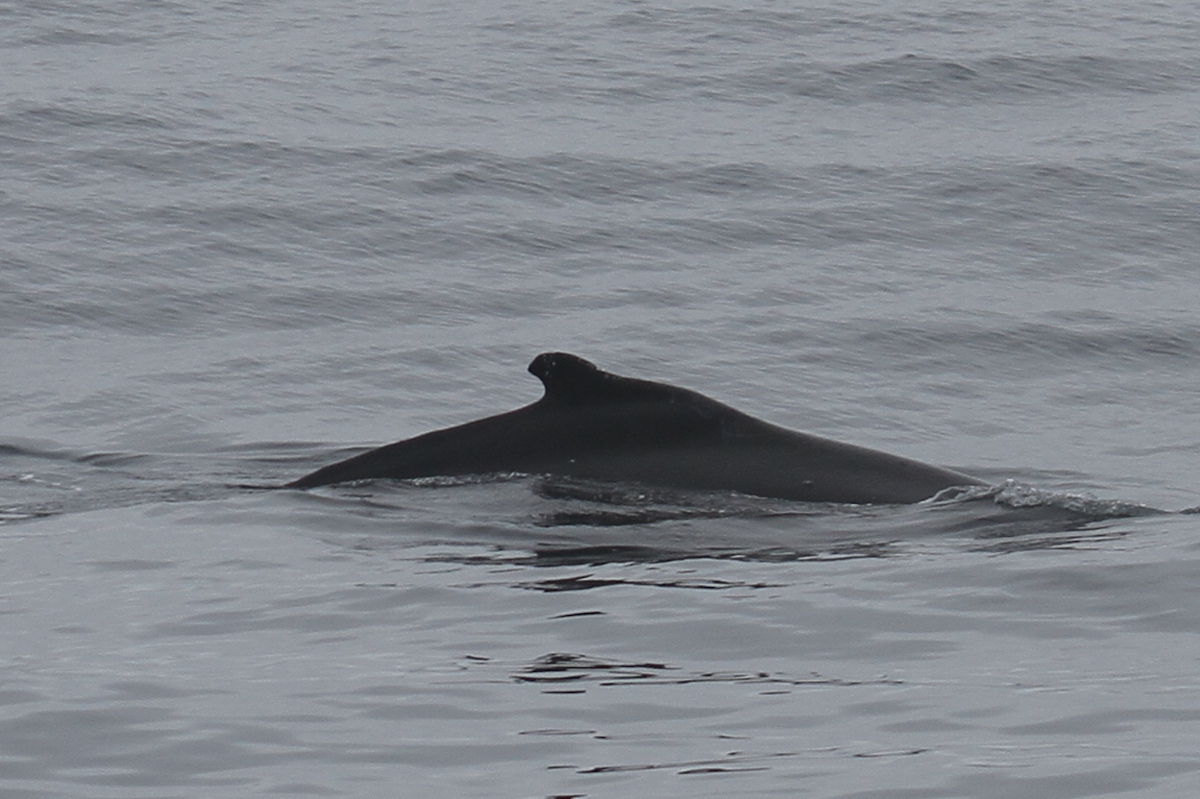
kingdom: Animalia
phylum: Chordata
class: Mammalia
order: Cetacea
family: Balaenopteridae
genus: Megaptera
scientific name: Megaptera novaeangliae
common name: Humpback whale
